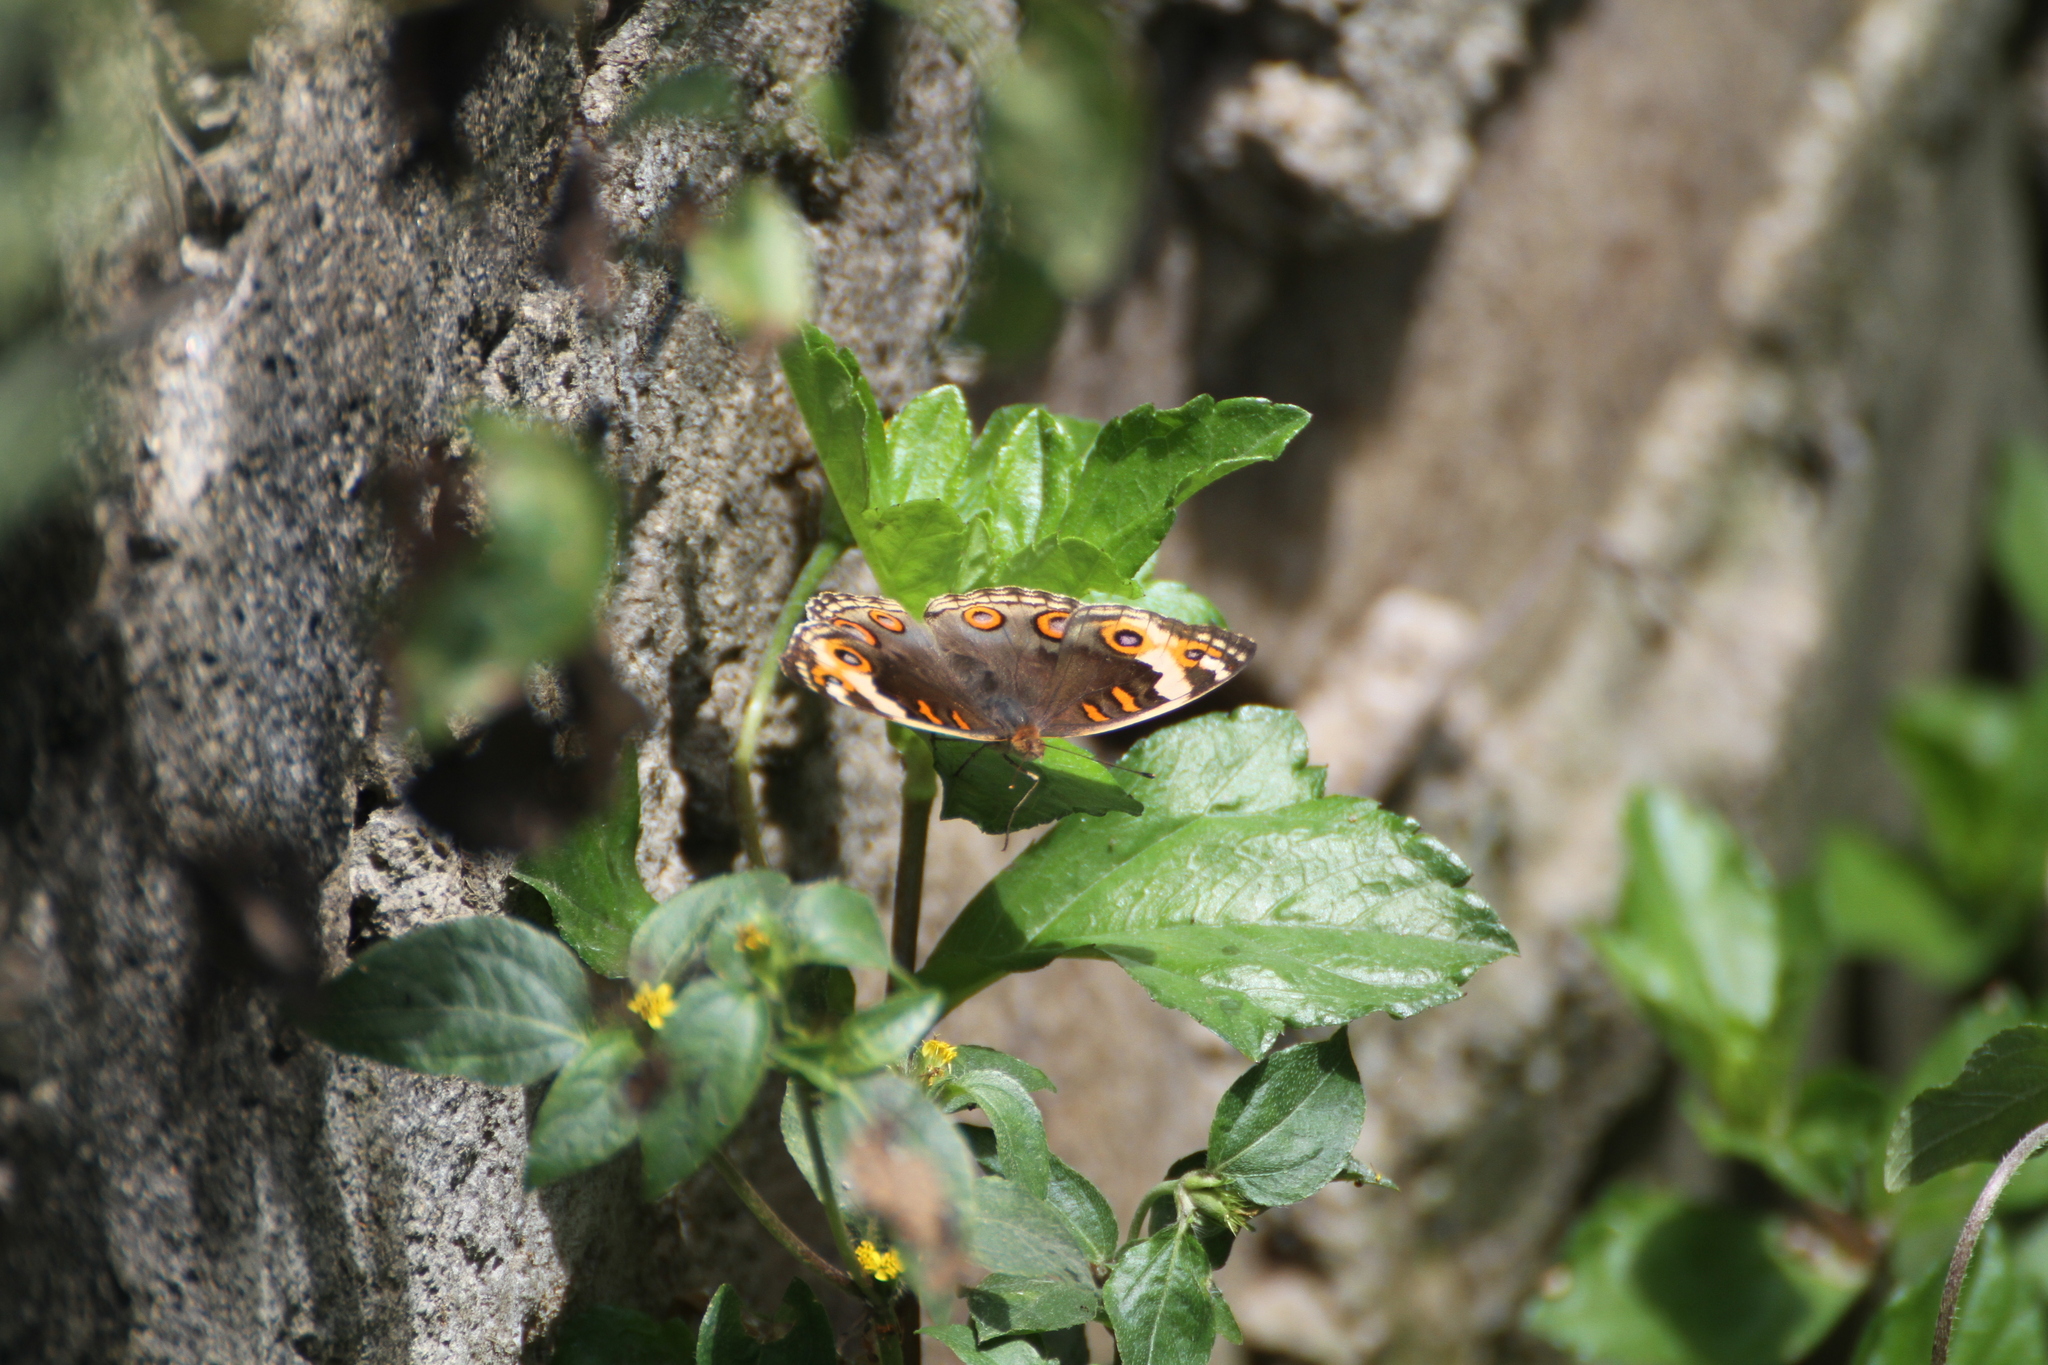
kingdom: Animalia
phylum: Arthropoda
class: Insecta
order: Lepidoptera
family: Nymphalidae
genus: Junonia
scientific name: Junonia orithya
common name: Blue pansy
